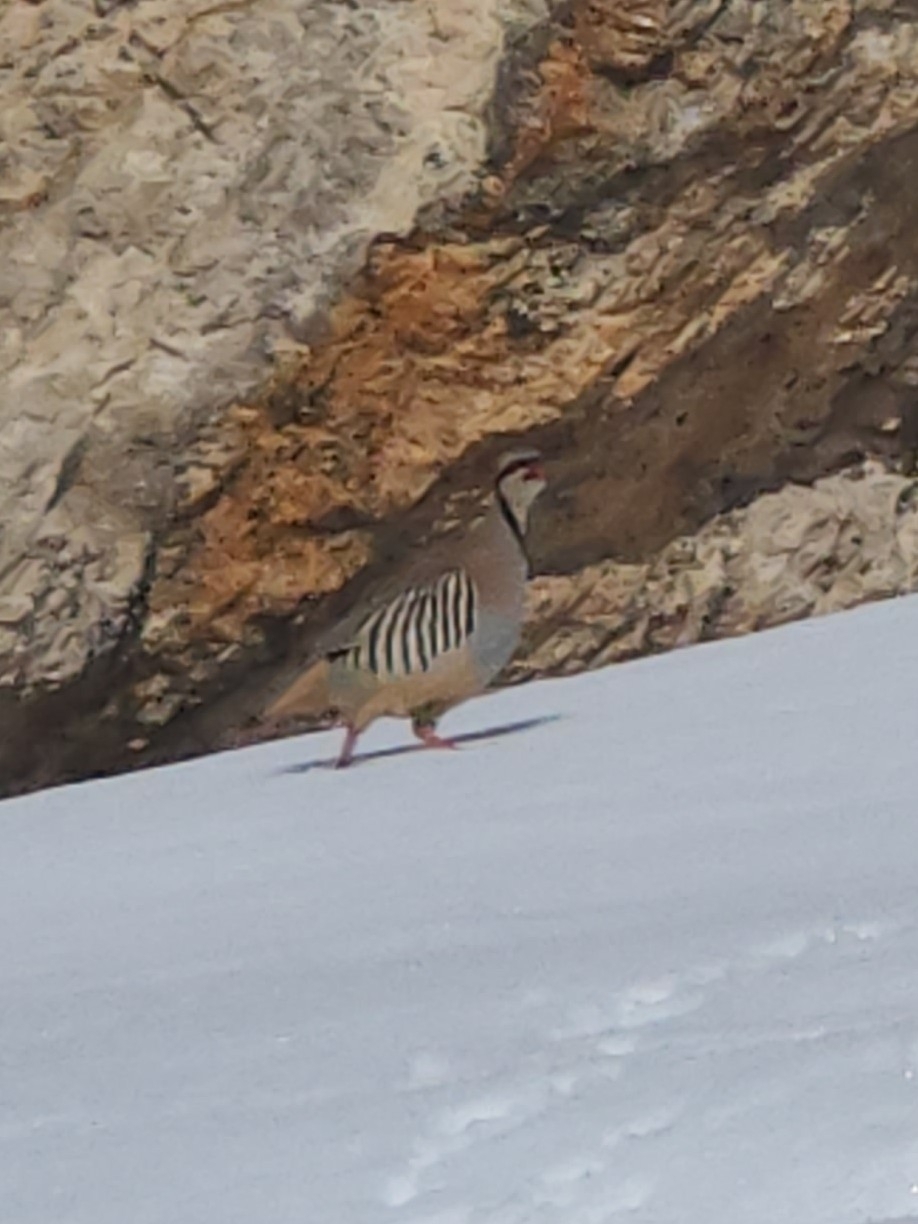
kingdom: Animalia
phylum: Chordata
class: Aves
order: Galliformes
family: Phasianidae
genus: Alectoris
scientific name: Alectoris chukar
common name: Chukar
